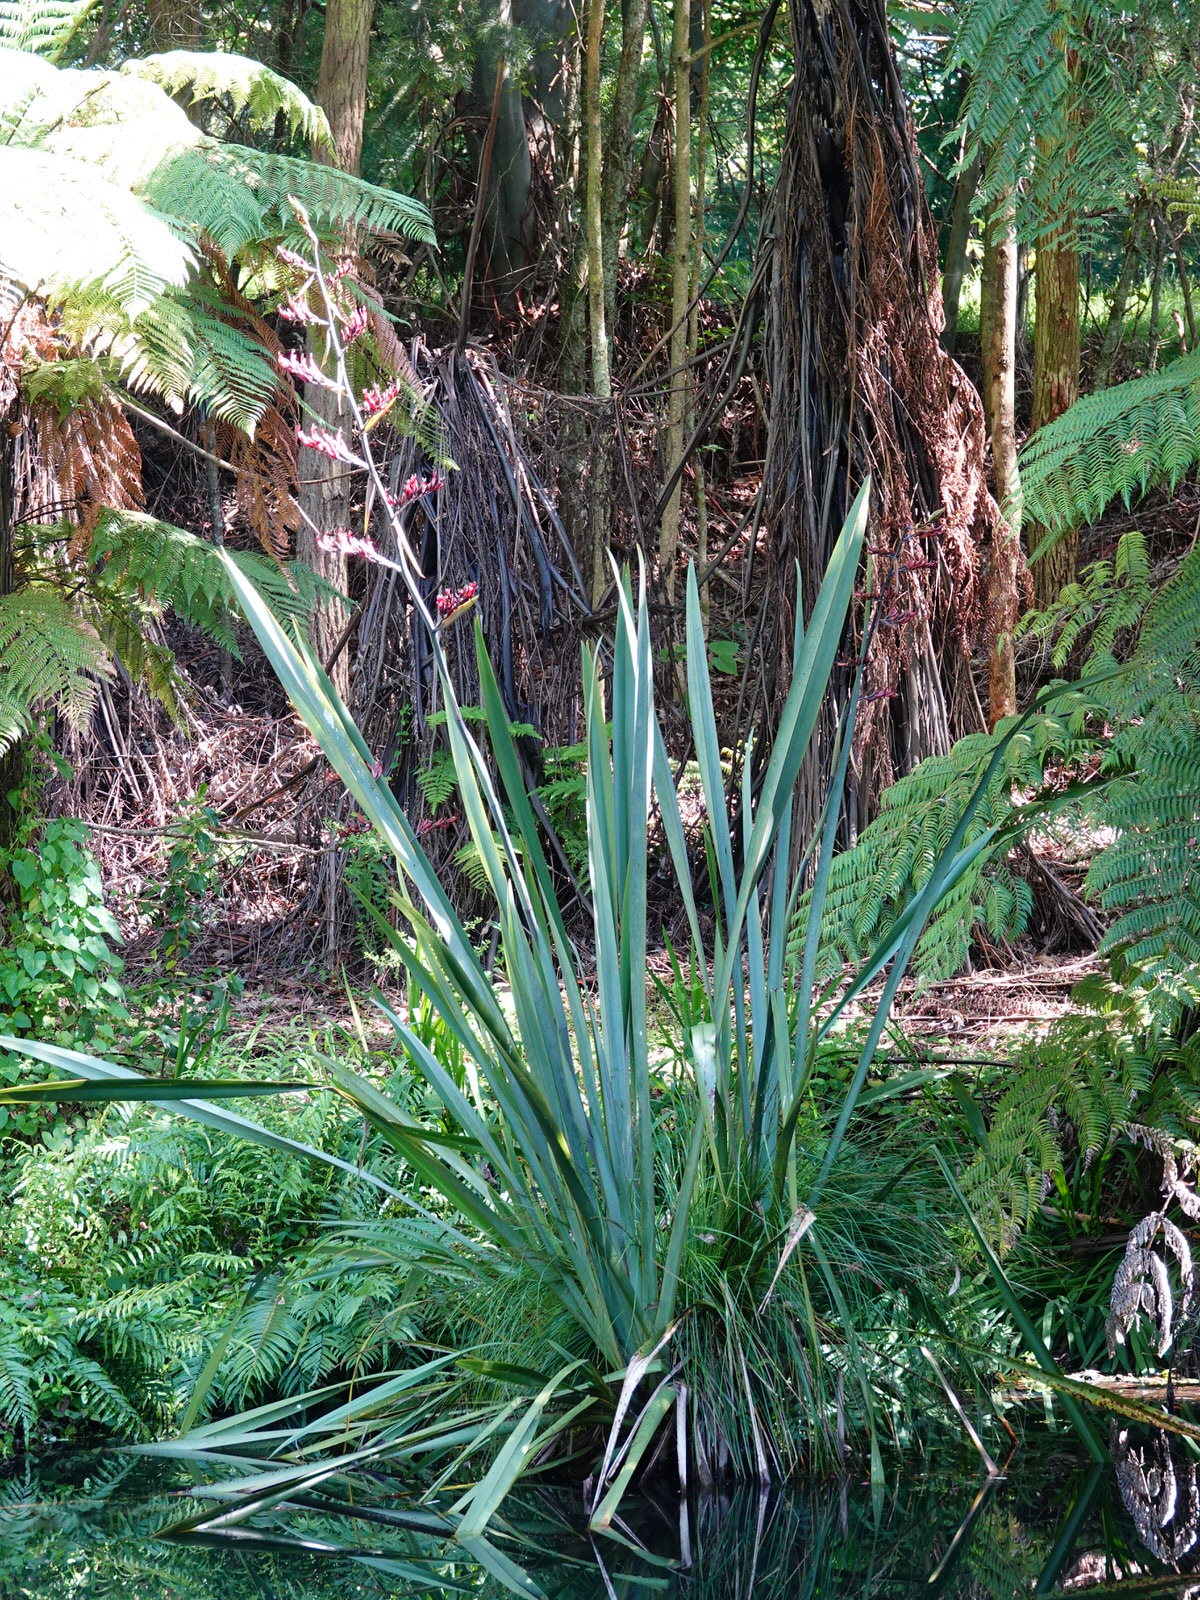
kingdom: Plantae
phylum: Tracheophyta
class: Liliopsida
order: Asparagales
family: Asphodelaceae
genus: Phormium
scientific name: Phormium tenax
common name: New zealand flax
